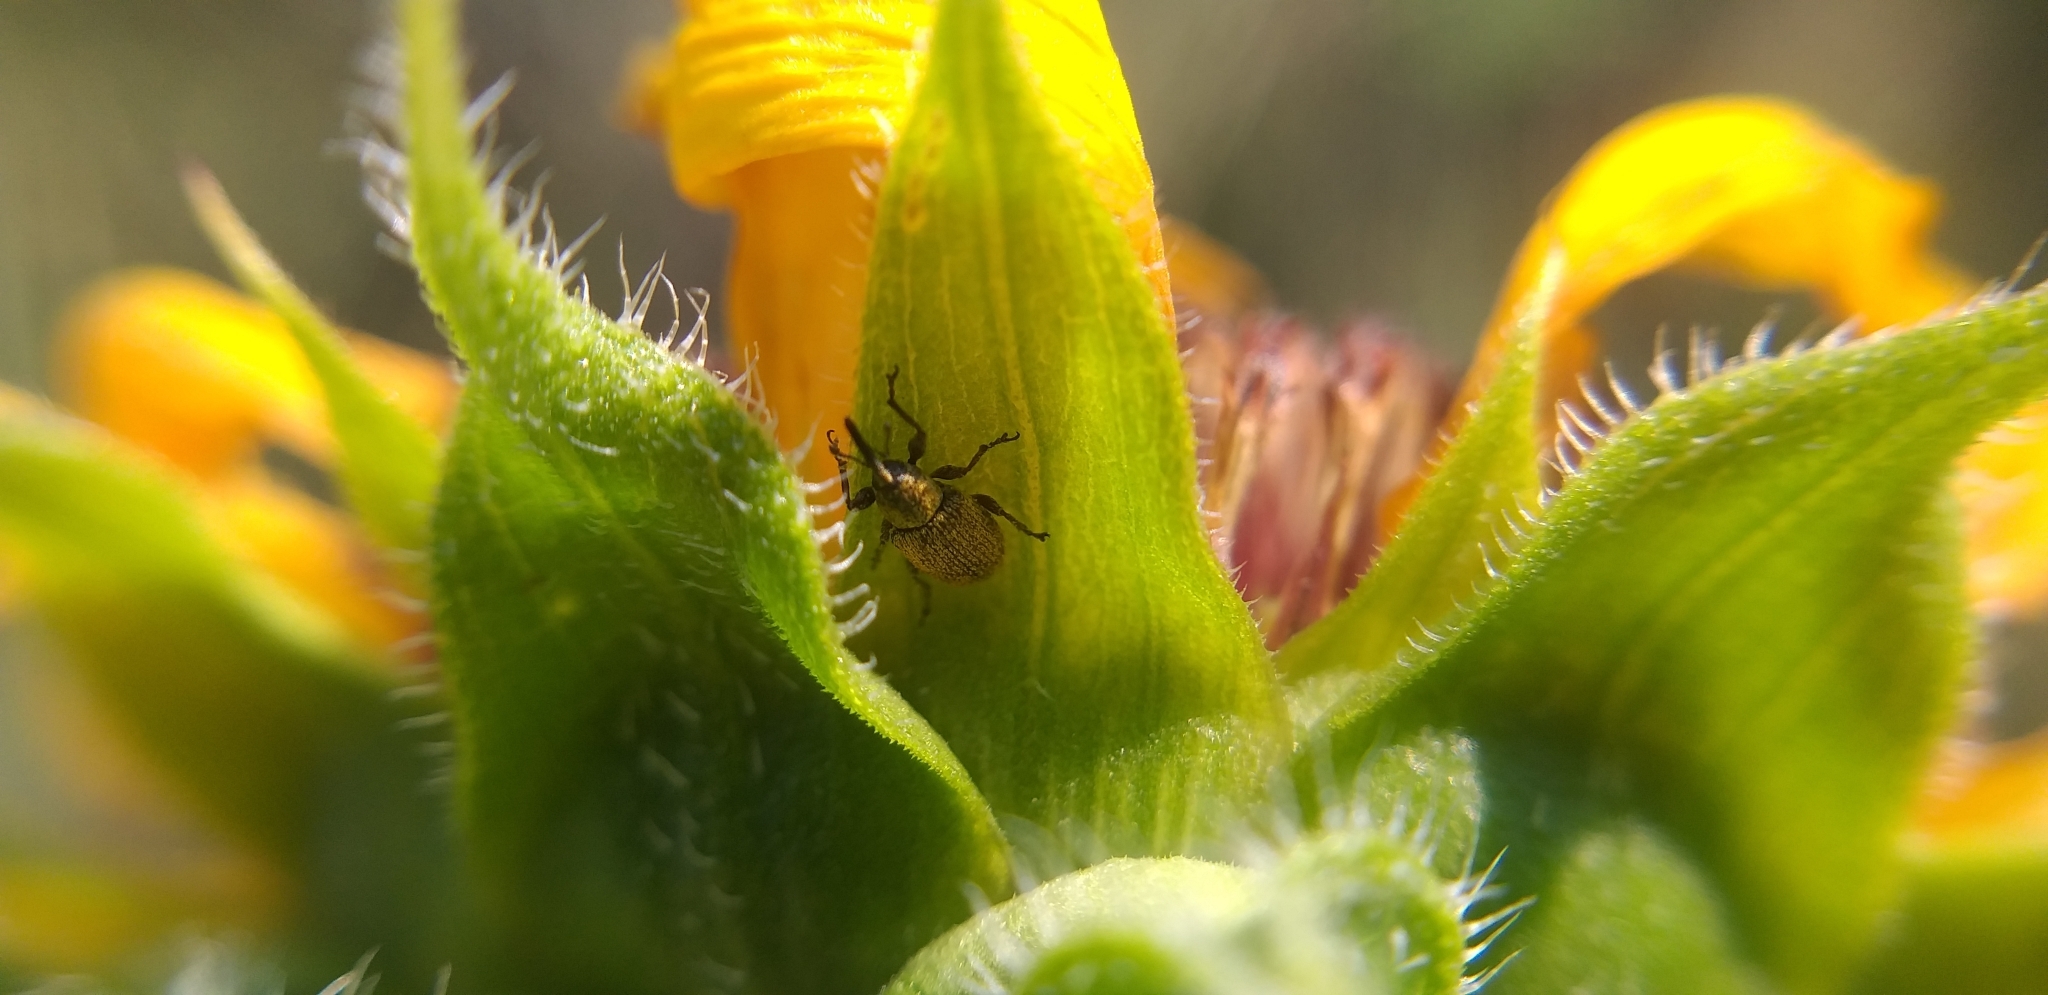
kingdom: Animalia
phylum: Arthropoda
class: Insecta
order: Coleoptera
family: Curculionidae
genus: Smicronyx
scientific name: Smicronyx fulvus
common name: Red sunflower seed weevil
